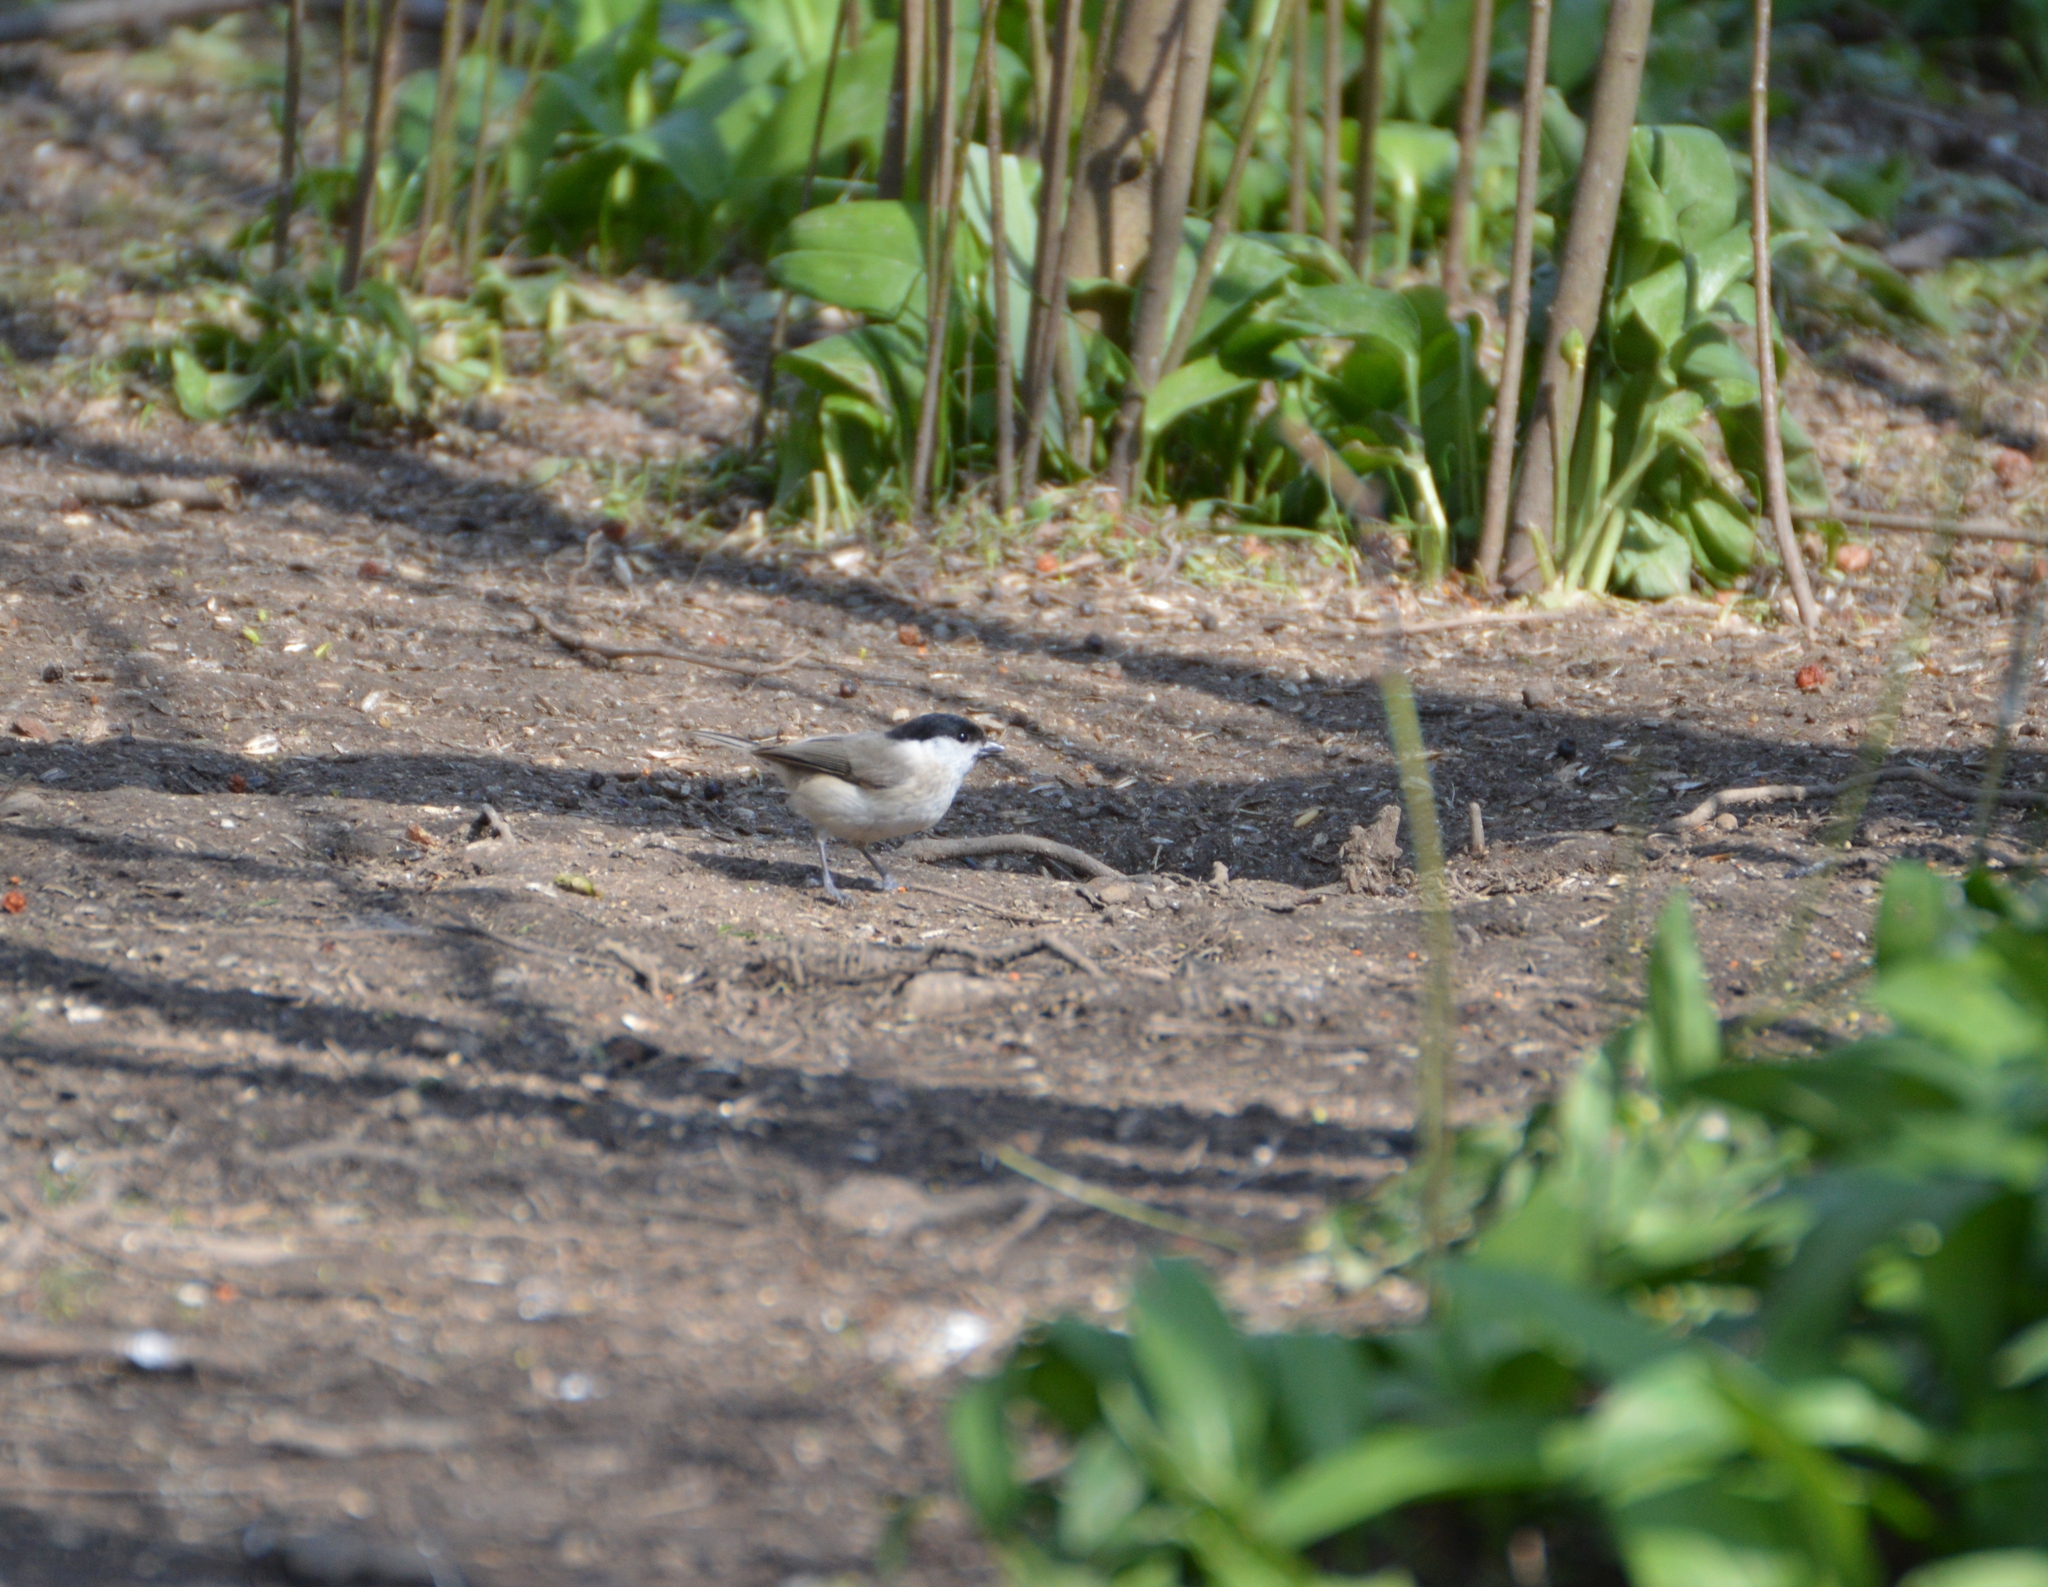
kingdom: Animalia
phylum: Chordata
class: Aves
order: Passeriformes
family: Paridae
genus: Poecile
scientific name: Poecile palustris
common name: Marsh tit
